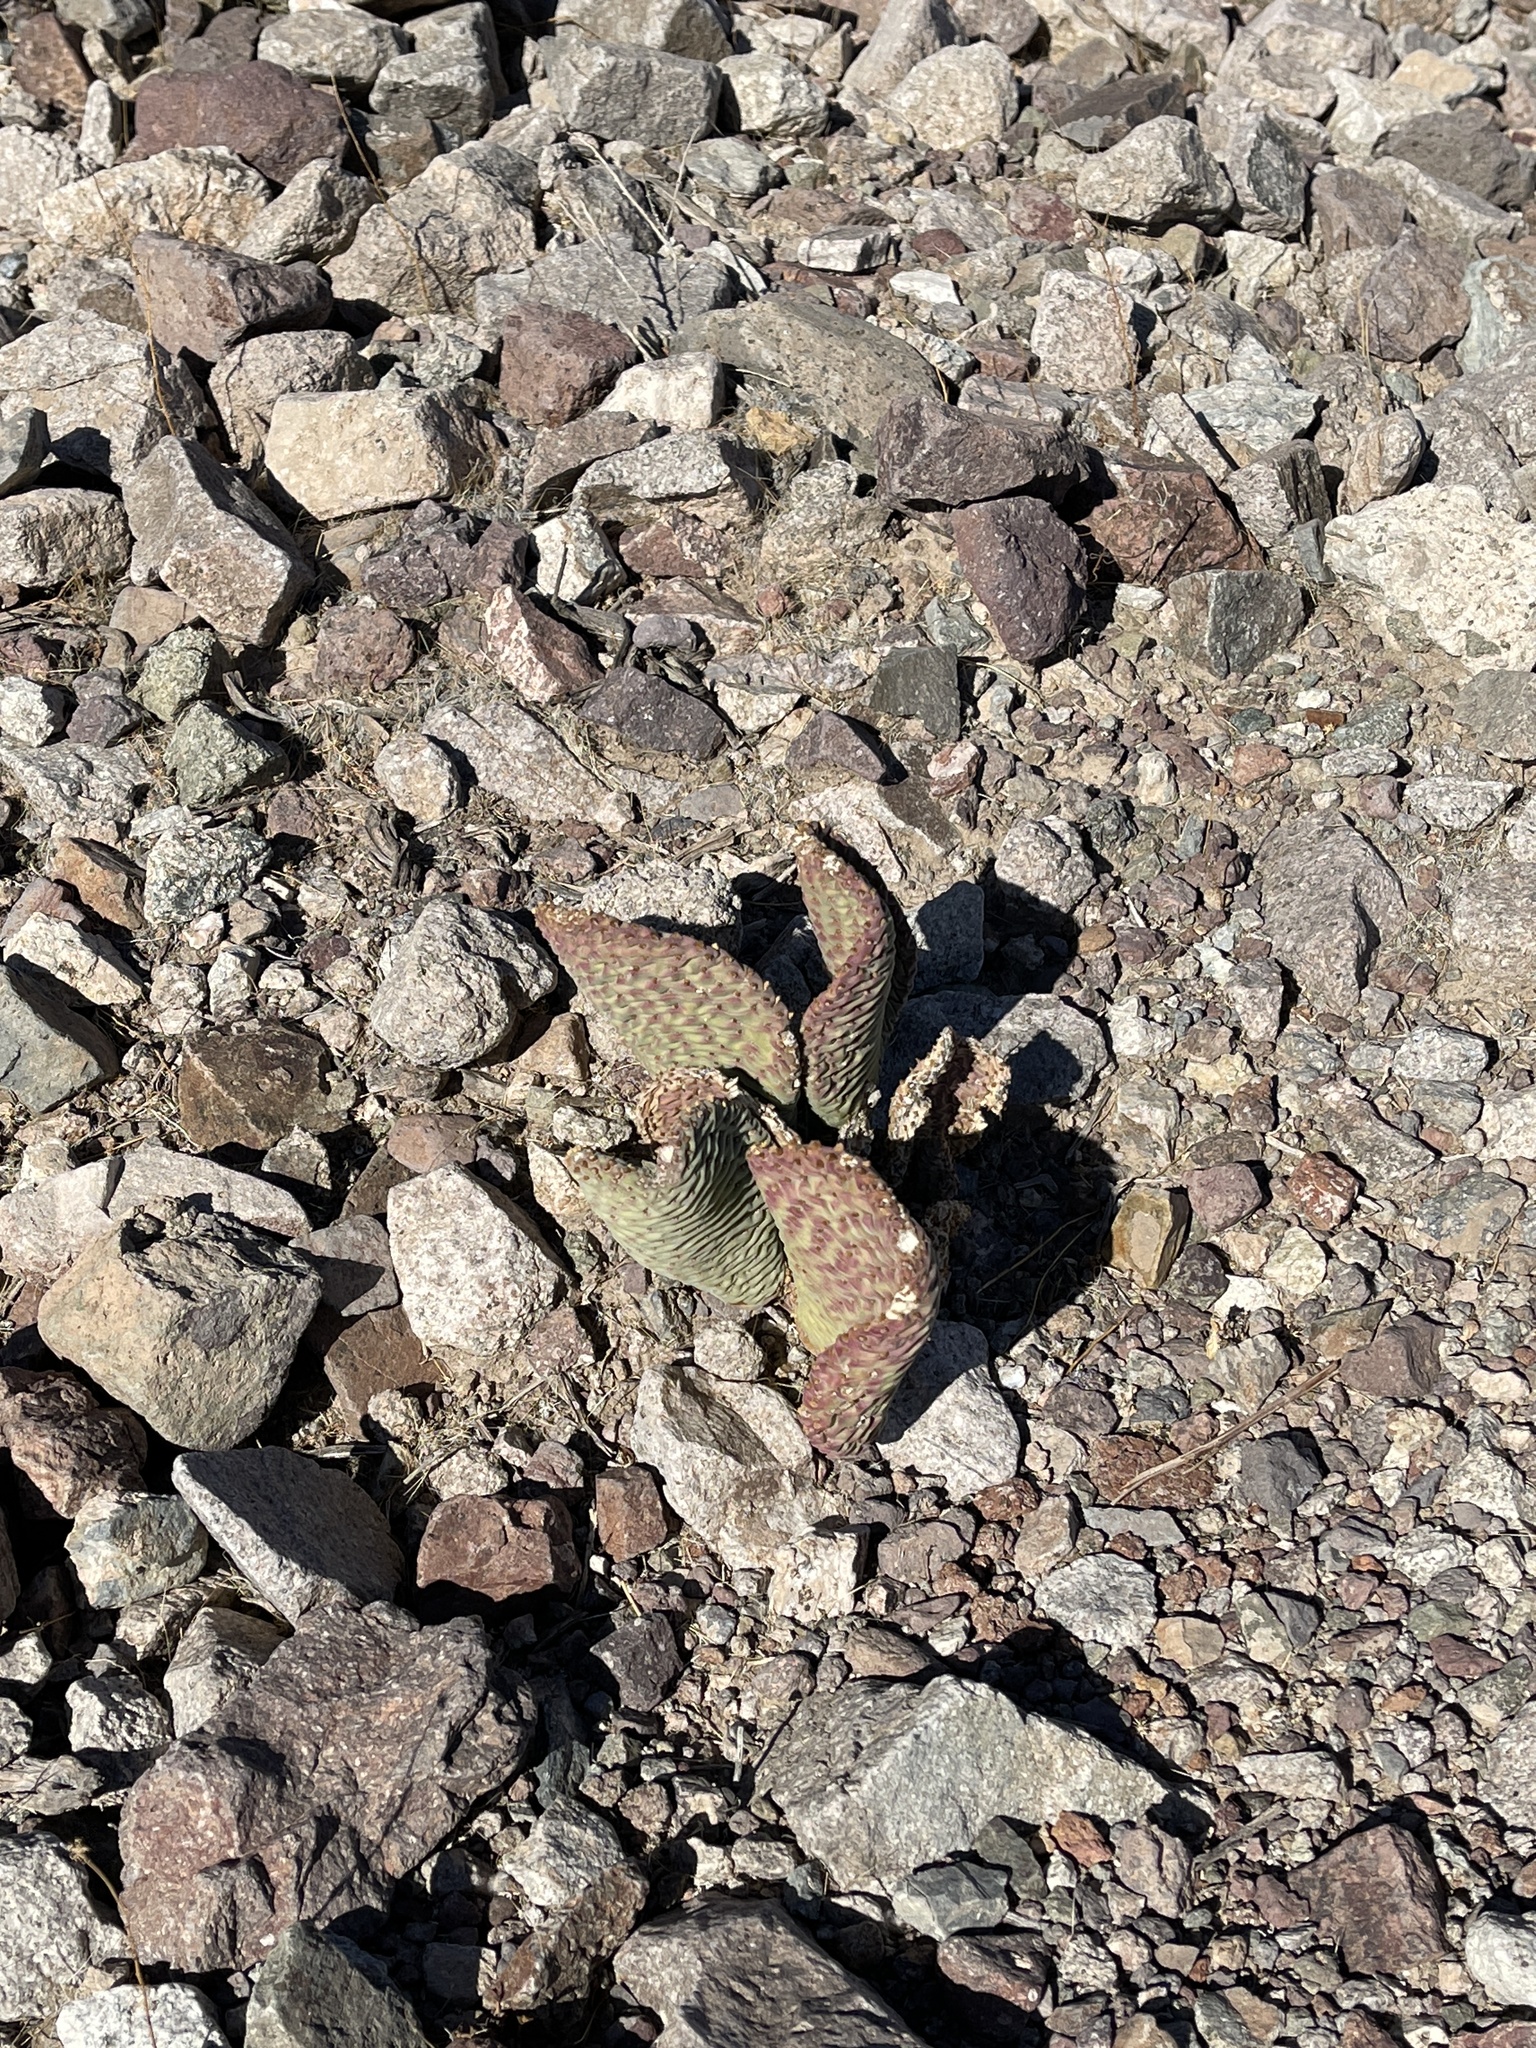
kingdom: Plantae
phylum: Tracheophyta
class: Magnoliopsida
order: Caryophyllales
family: Cactaceae
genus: Opuntia
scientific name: Opuntia basilaris
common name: Beavertail prickly-pear
